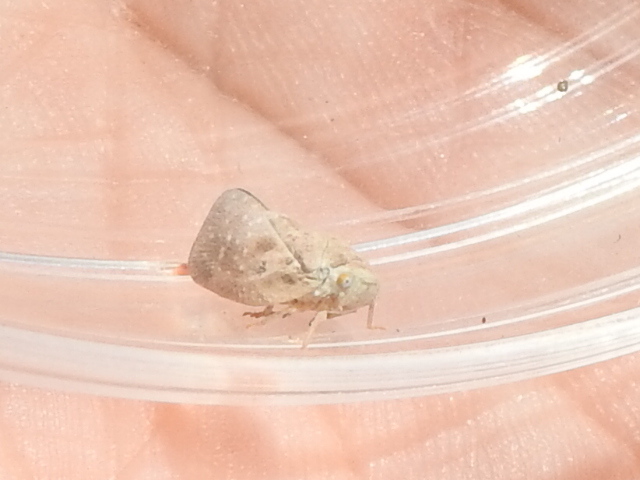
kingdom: Animalia
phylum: Arthropoda
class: Insecta
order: Hemiptera
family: Flatidae
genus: Metcalfa
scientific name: Metcalfa pruinosa
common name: Citrus flatid planthopper
